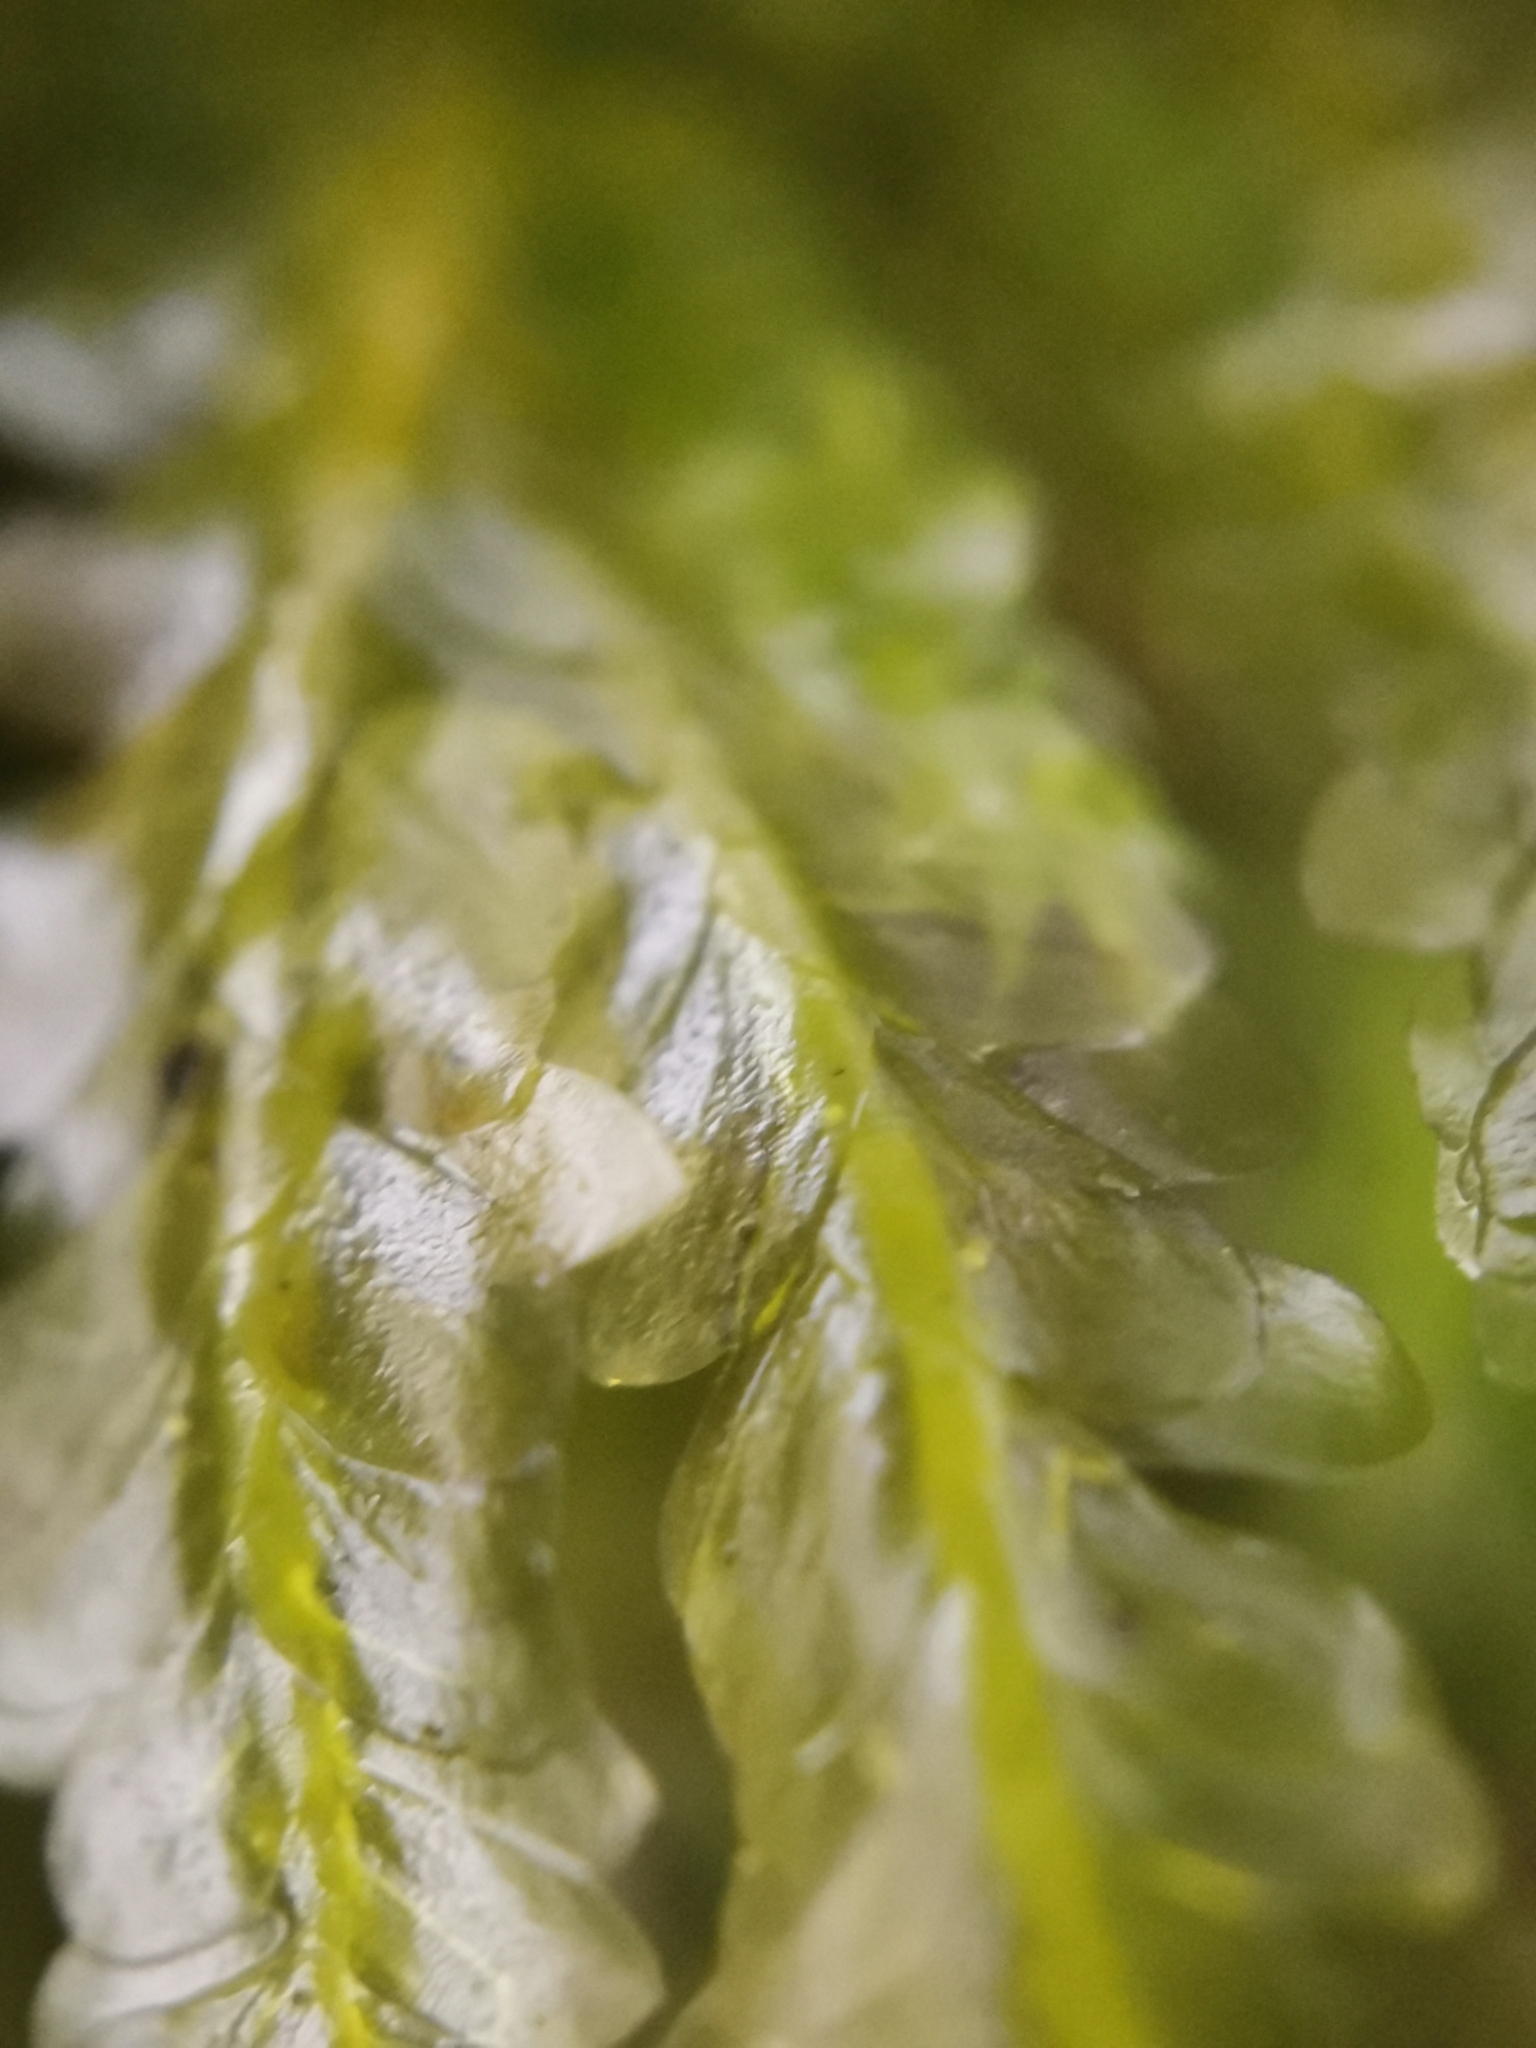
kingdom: Plantae
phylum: Bryophyta
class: Bryopsida
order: Hypnales
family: Neckeraceae
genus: Homalia
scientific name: Homalia trichomanoides
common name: Lime homalia moss
